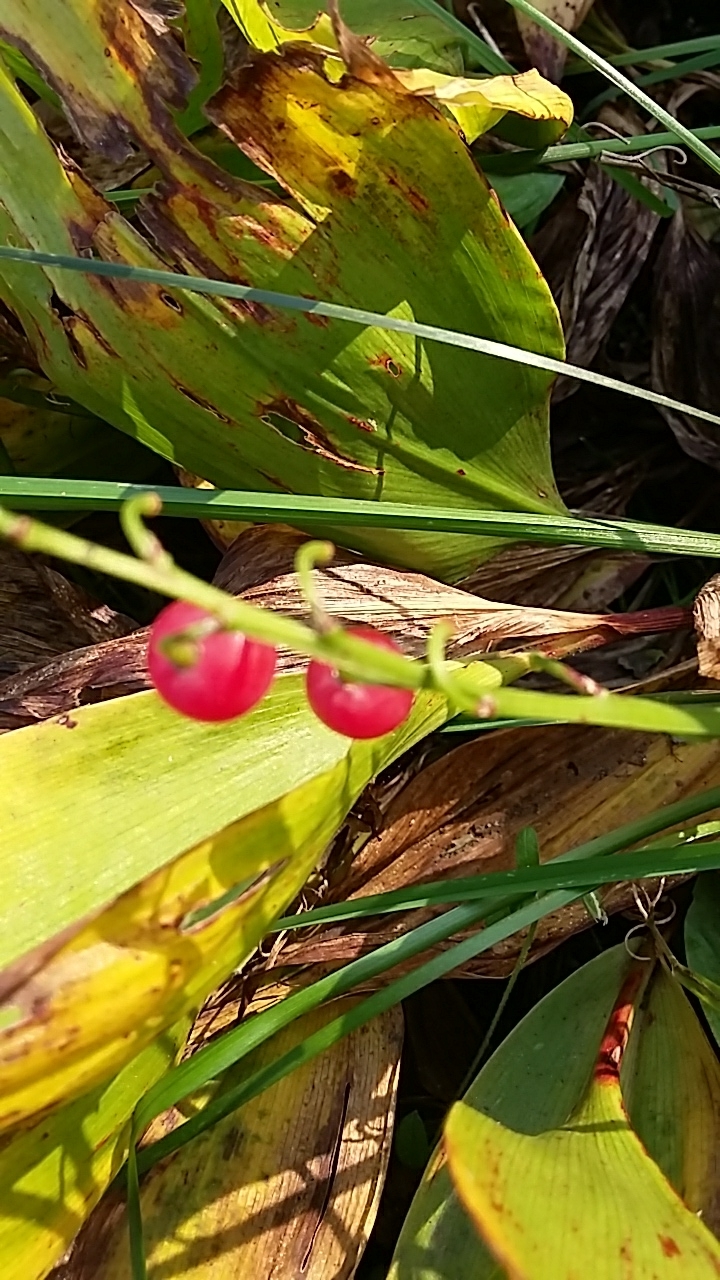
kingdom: Plantae
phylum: Tracheophyta
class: Liliopsida
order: Asparagales
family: Asparagaceae
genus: Convallaria
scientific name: Convallaria majalis
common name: Lily-of-the-valley
